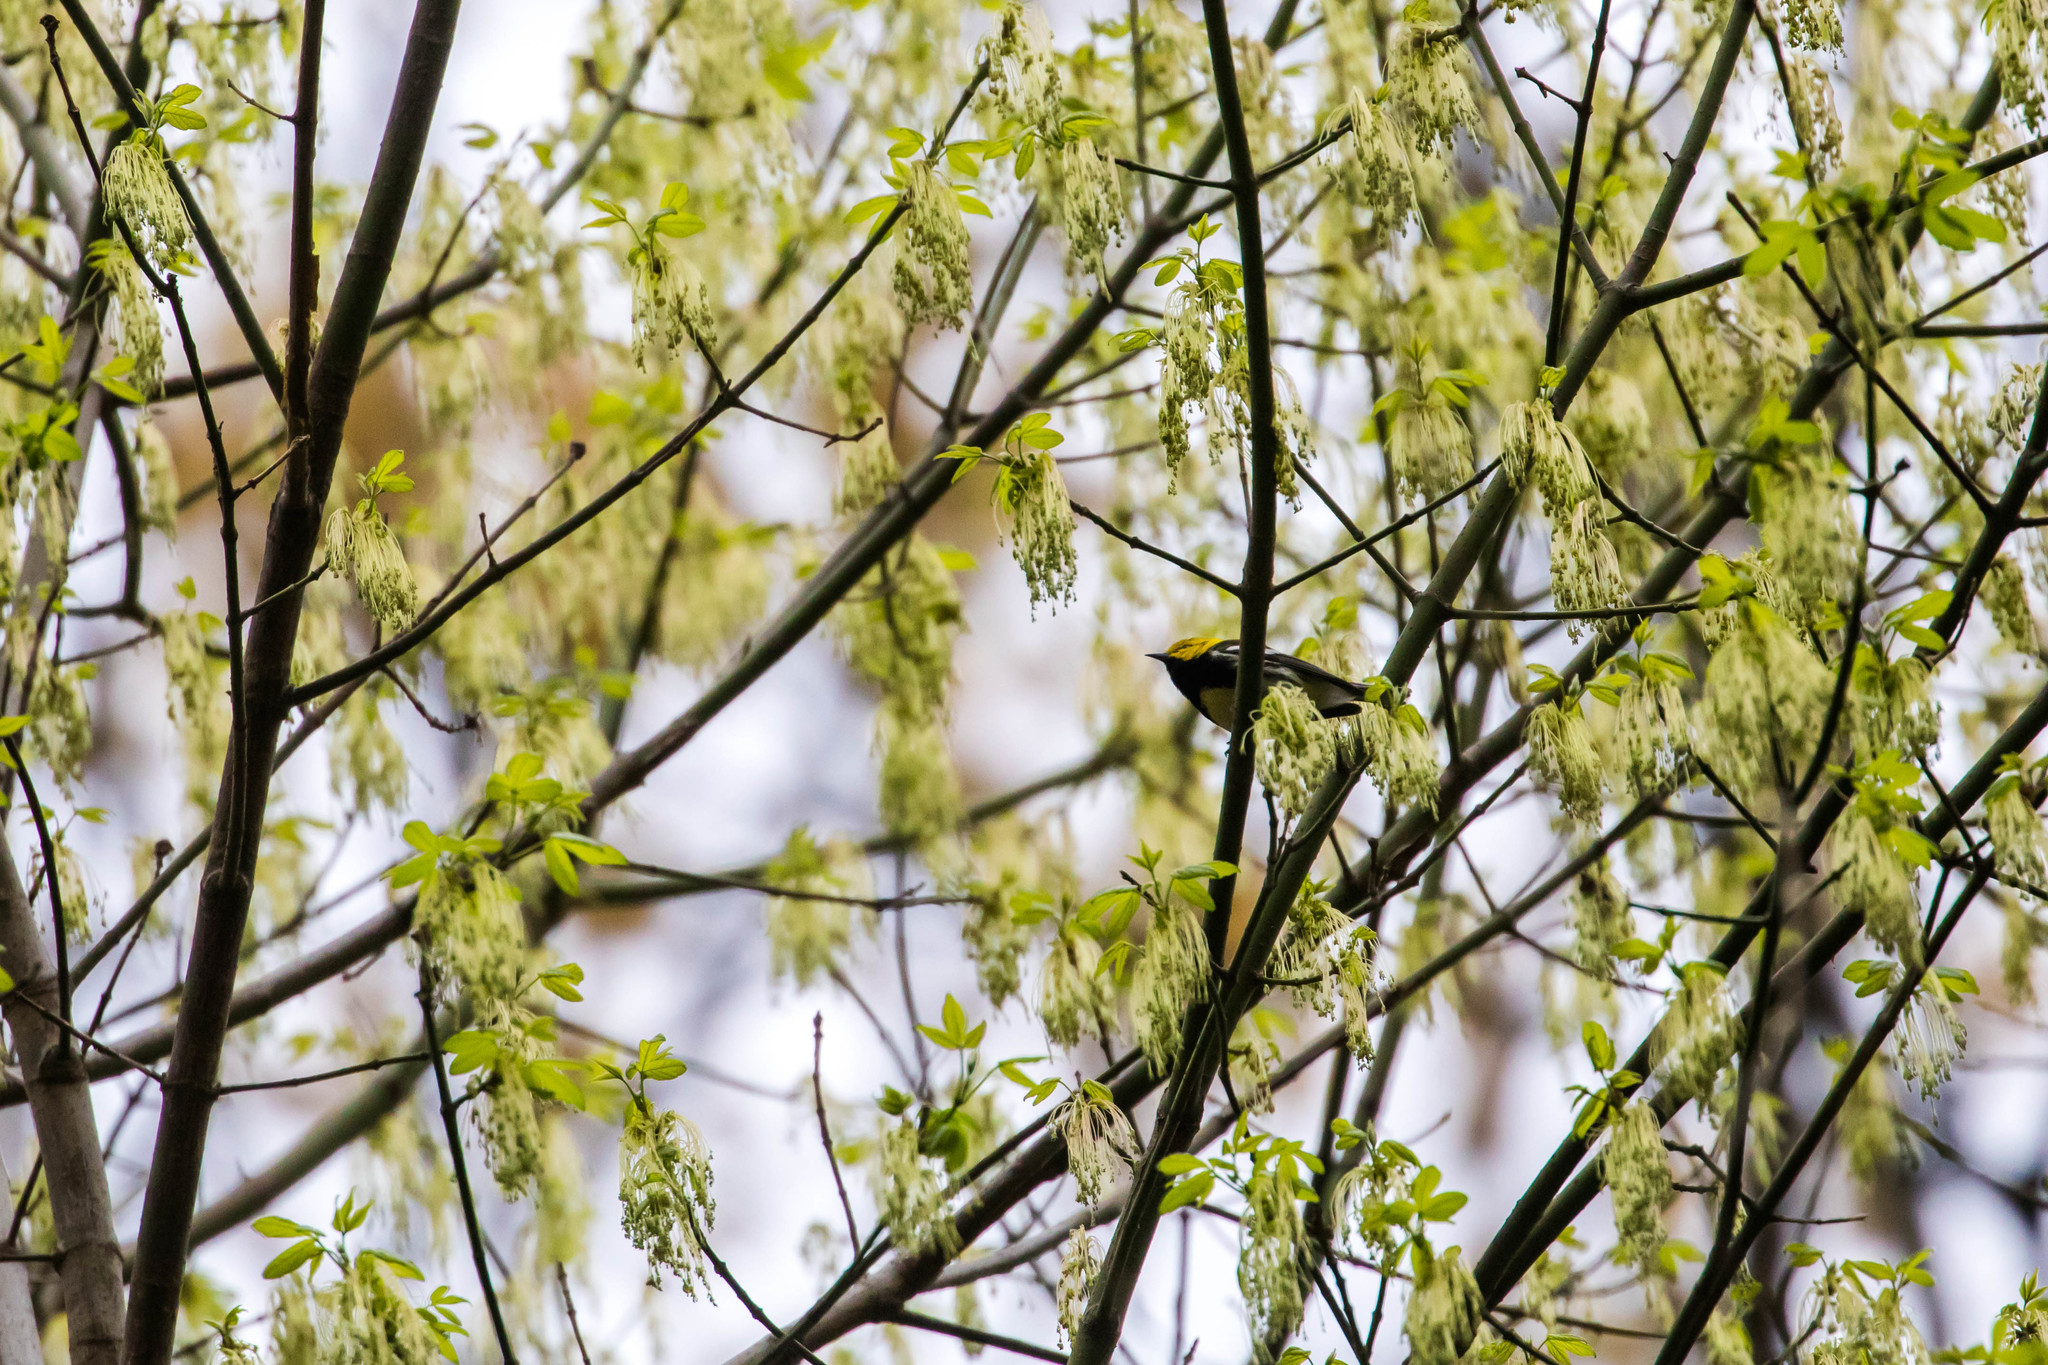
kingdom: Animalia
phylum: Chordata
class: Aves
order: Passeriformes
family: Parulidae
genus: Setophaga
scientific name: Setophaga virens
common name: Black-throated green warbler
